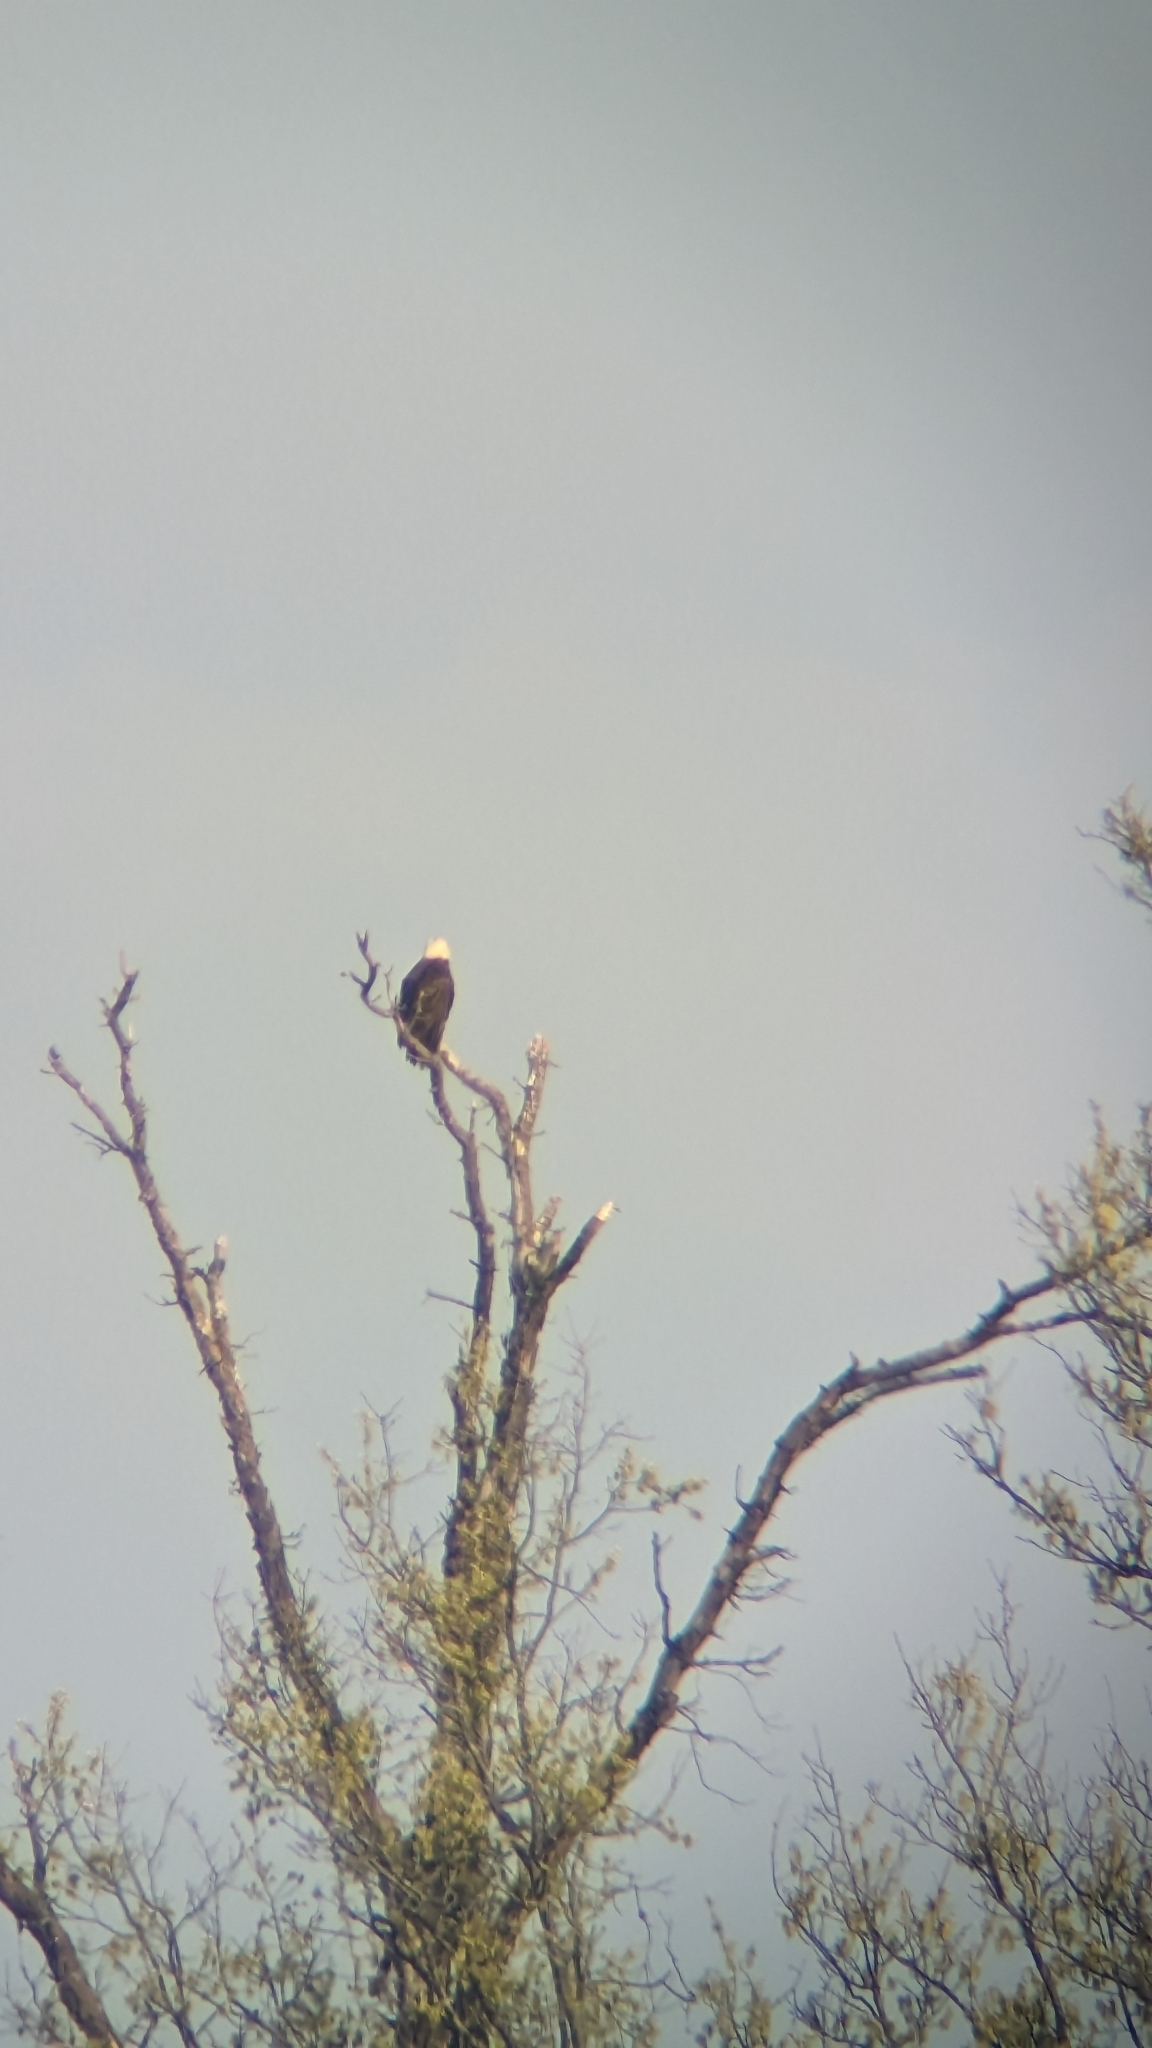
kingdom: Animalia
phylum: Chordata
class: Aves
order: Accipitriformes
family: Accipitridae
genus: Haliaeetus
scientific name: Haliaeetus leucocephalus
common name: Bald eagle
